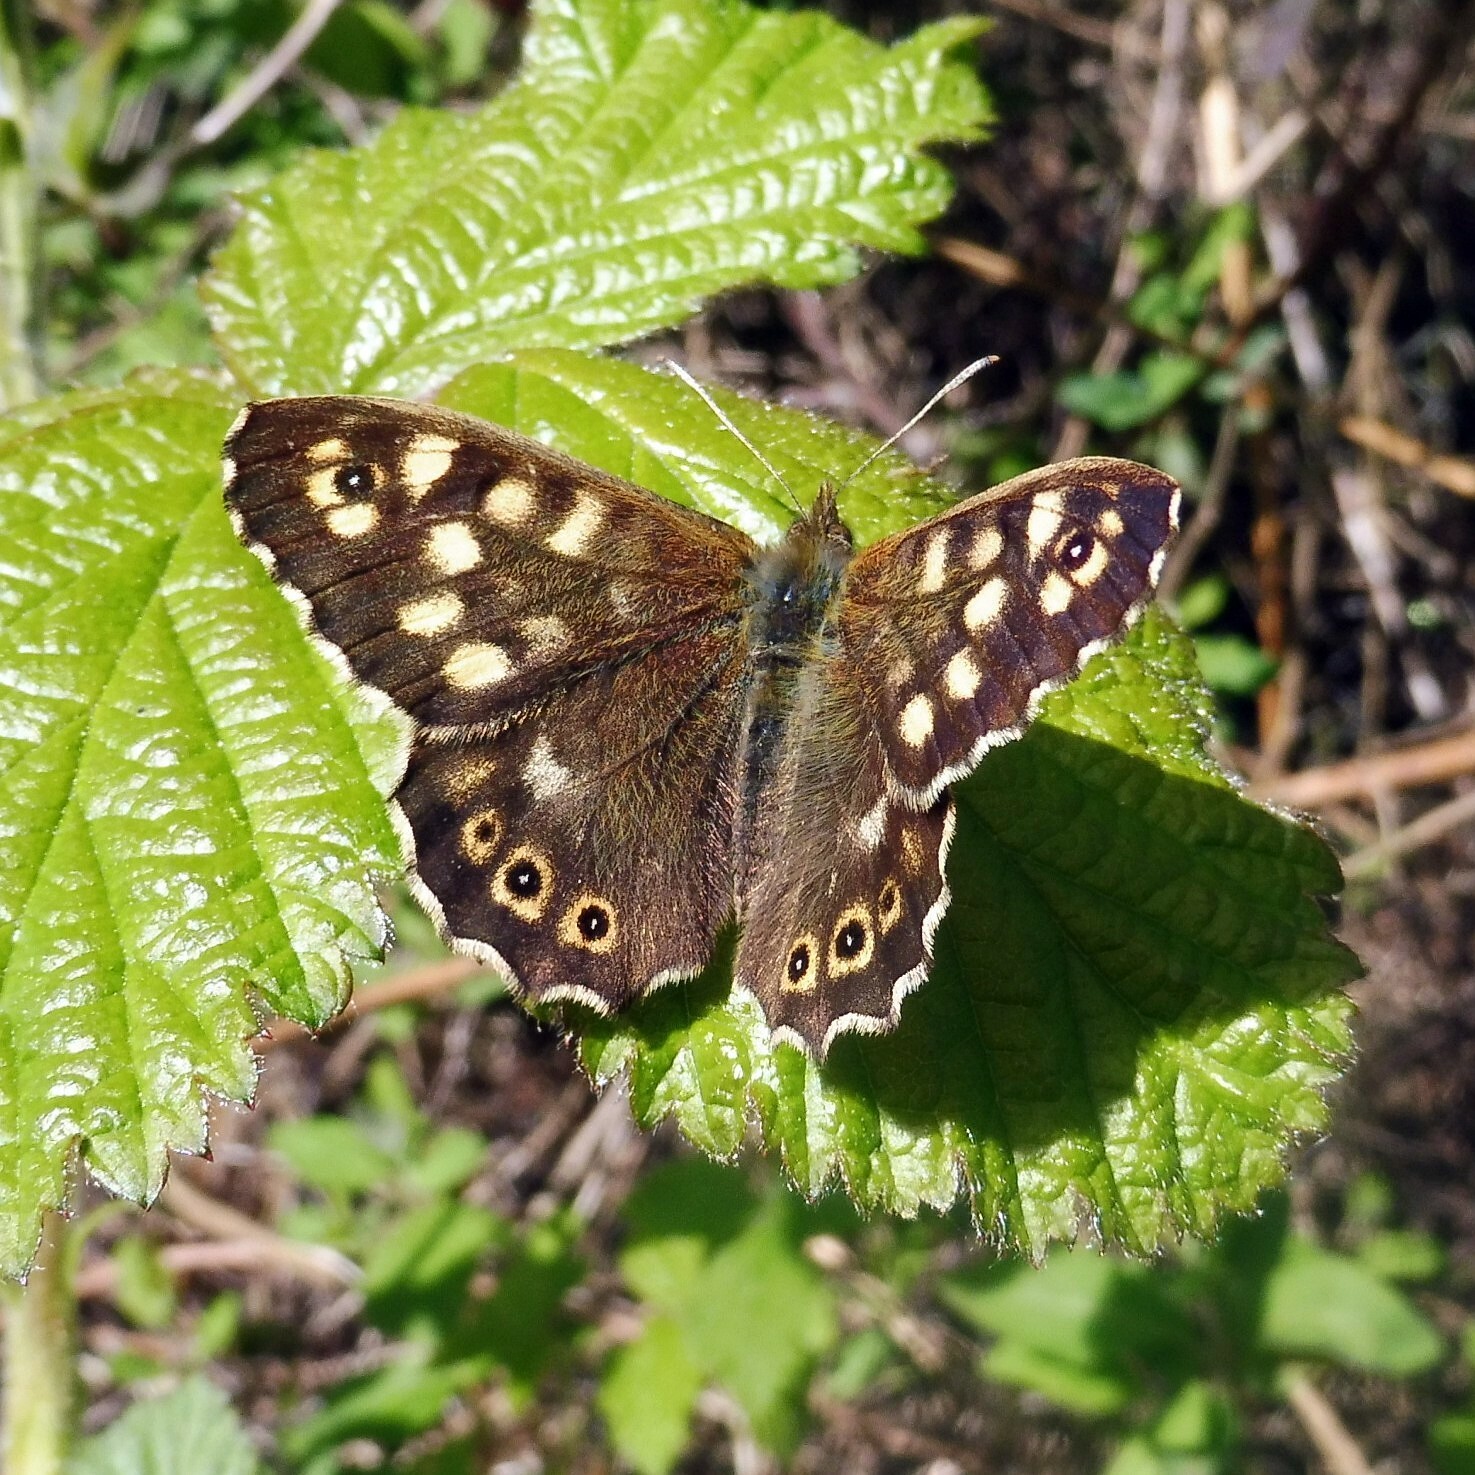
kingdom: Animalia
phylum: Arthropoda
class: Insecta
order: Lepidoptera
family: Nymphalidae
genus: Pararge
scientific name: Pararge aegeria
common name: Speckled wood
